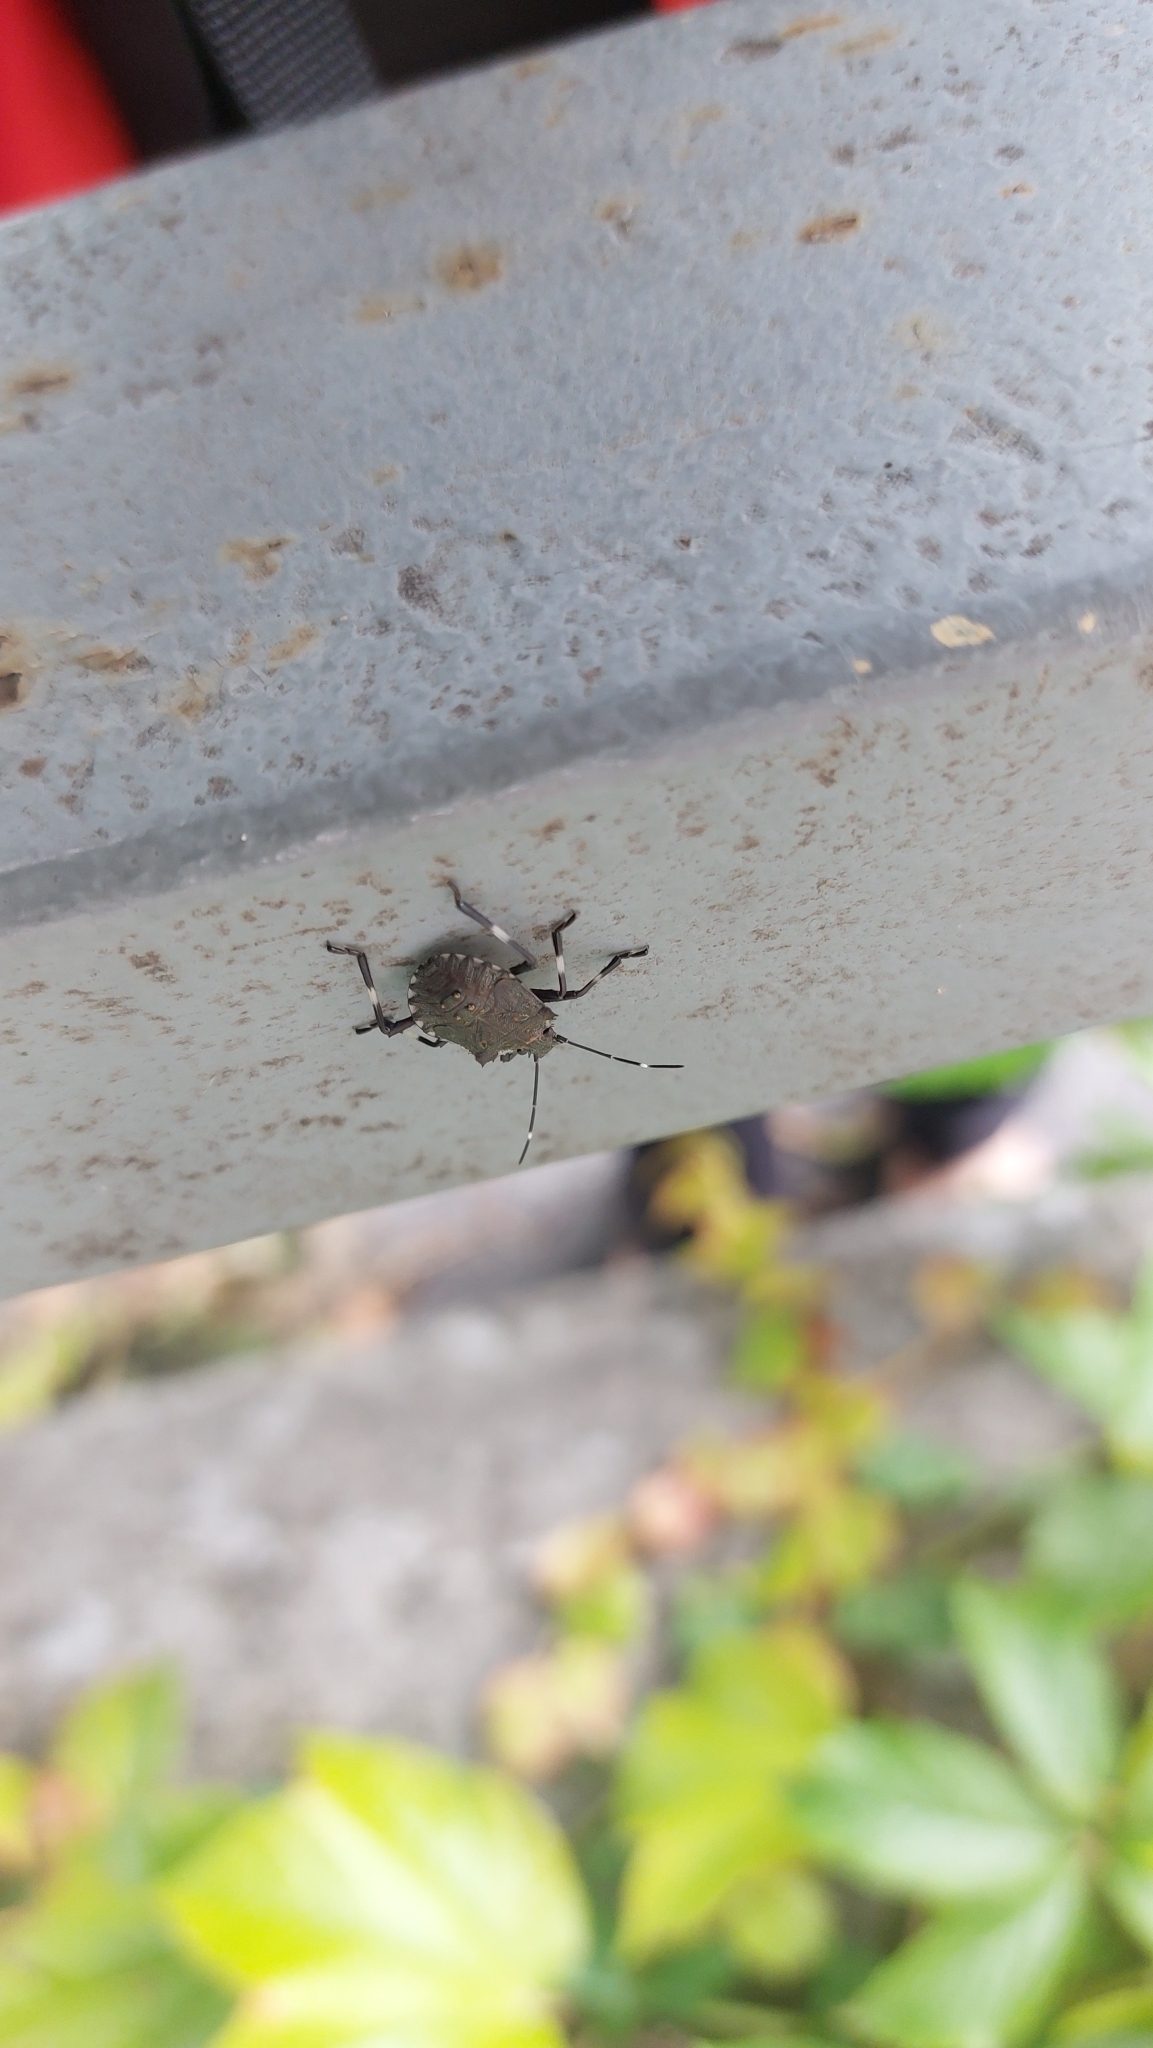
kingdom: Animalia
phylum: Arthropoda
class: Insecta
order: Hemiptera
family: Pentatomidae
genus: Halyomorpha
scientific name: Halyomorpha halys
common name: Brown marmorated stink bug
